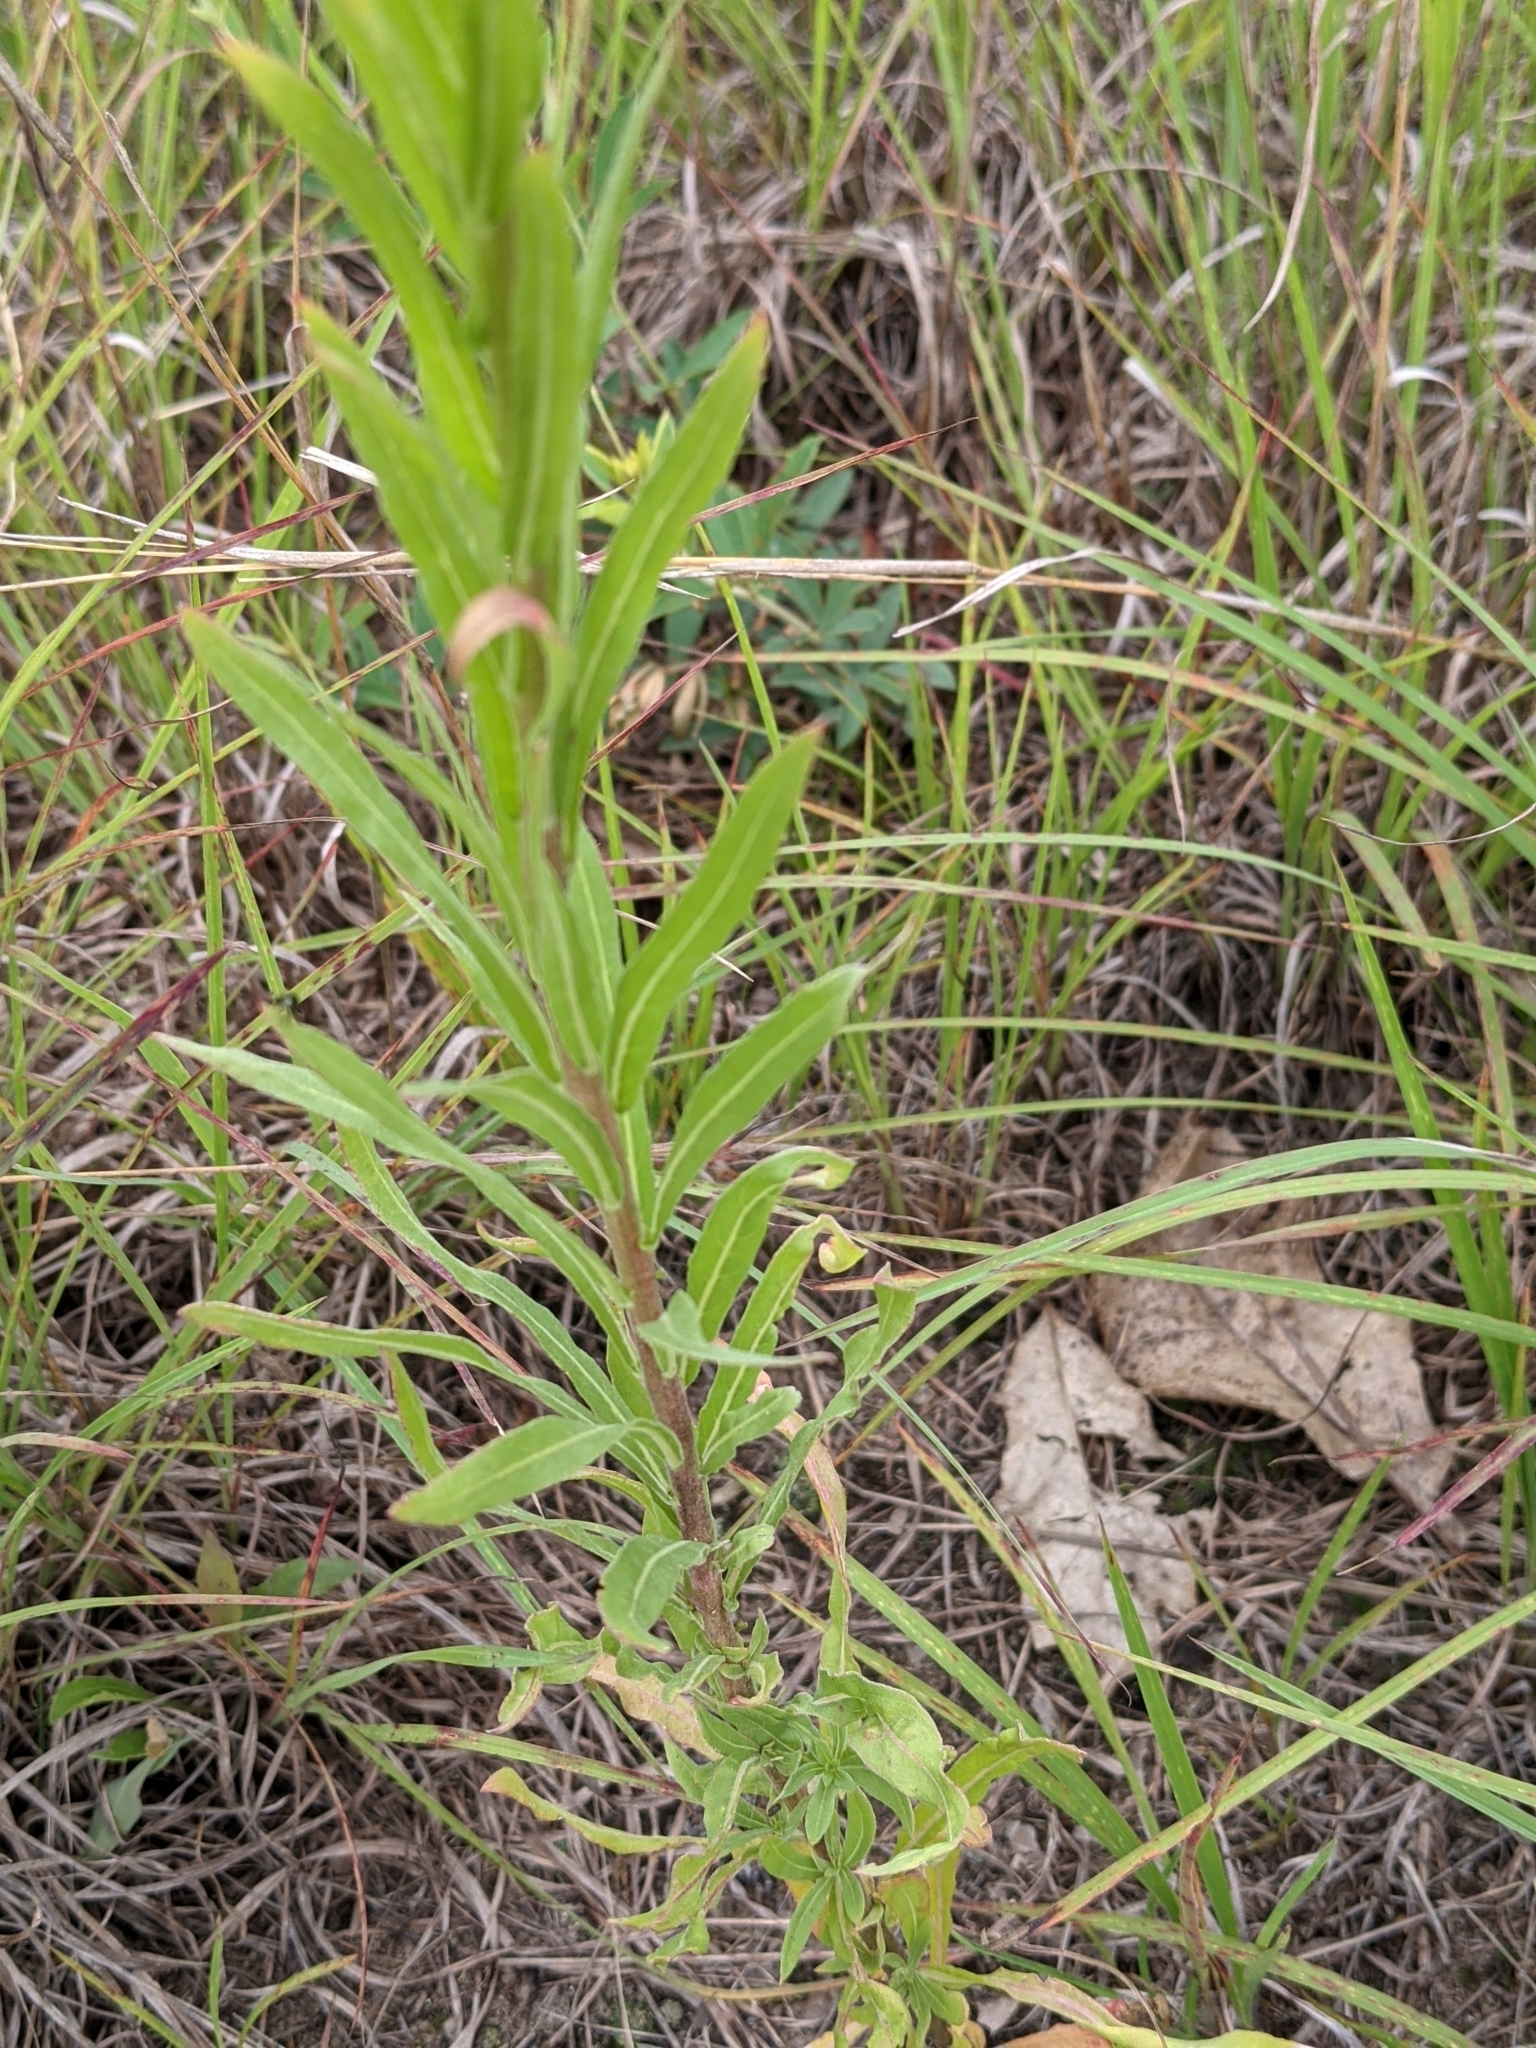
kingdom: Plantae
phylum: Tracheophyta
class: Magnoliopsida
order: Myrtales
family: Onagraceae
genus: Oenothera
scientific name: Oenothera clelandii
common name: Cleland's evening-primrose
